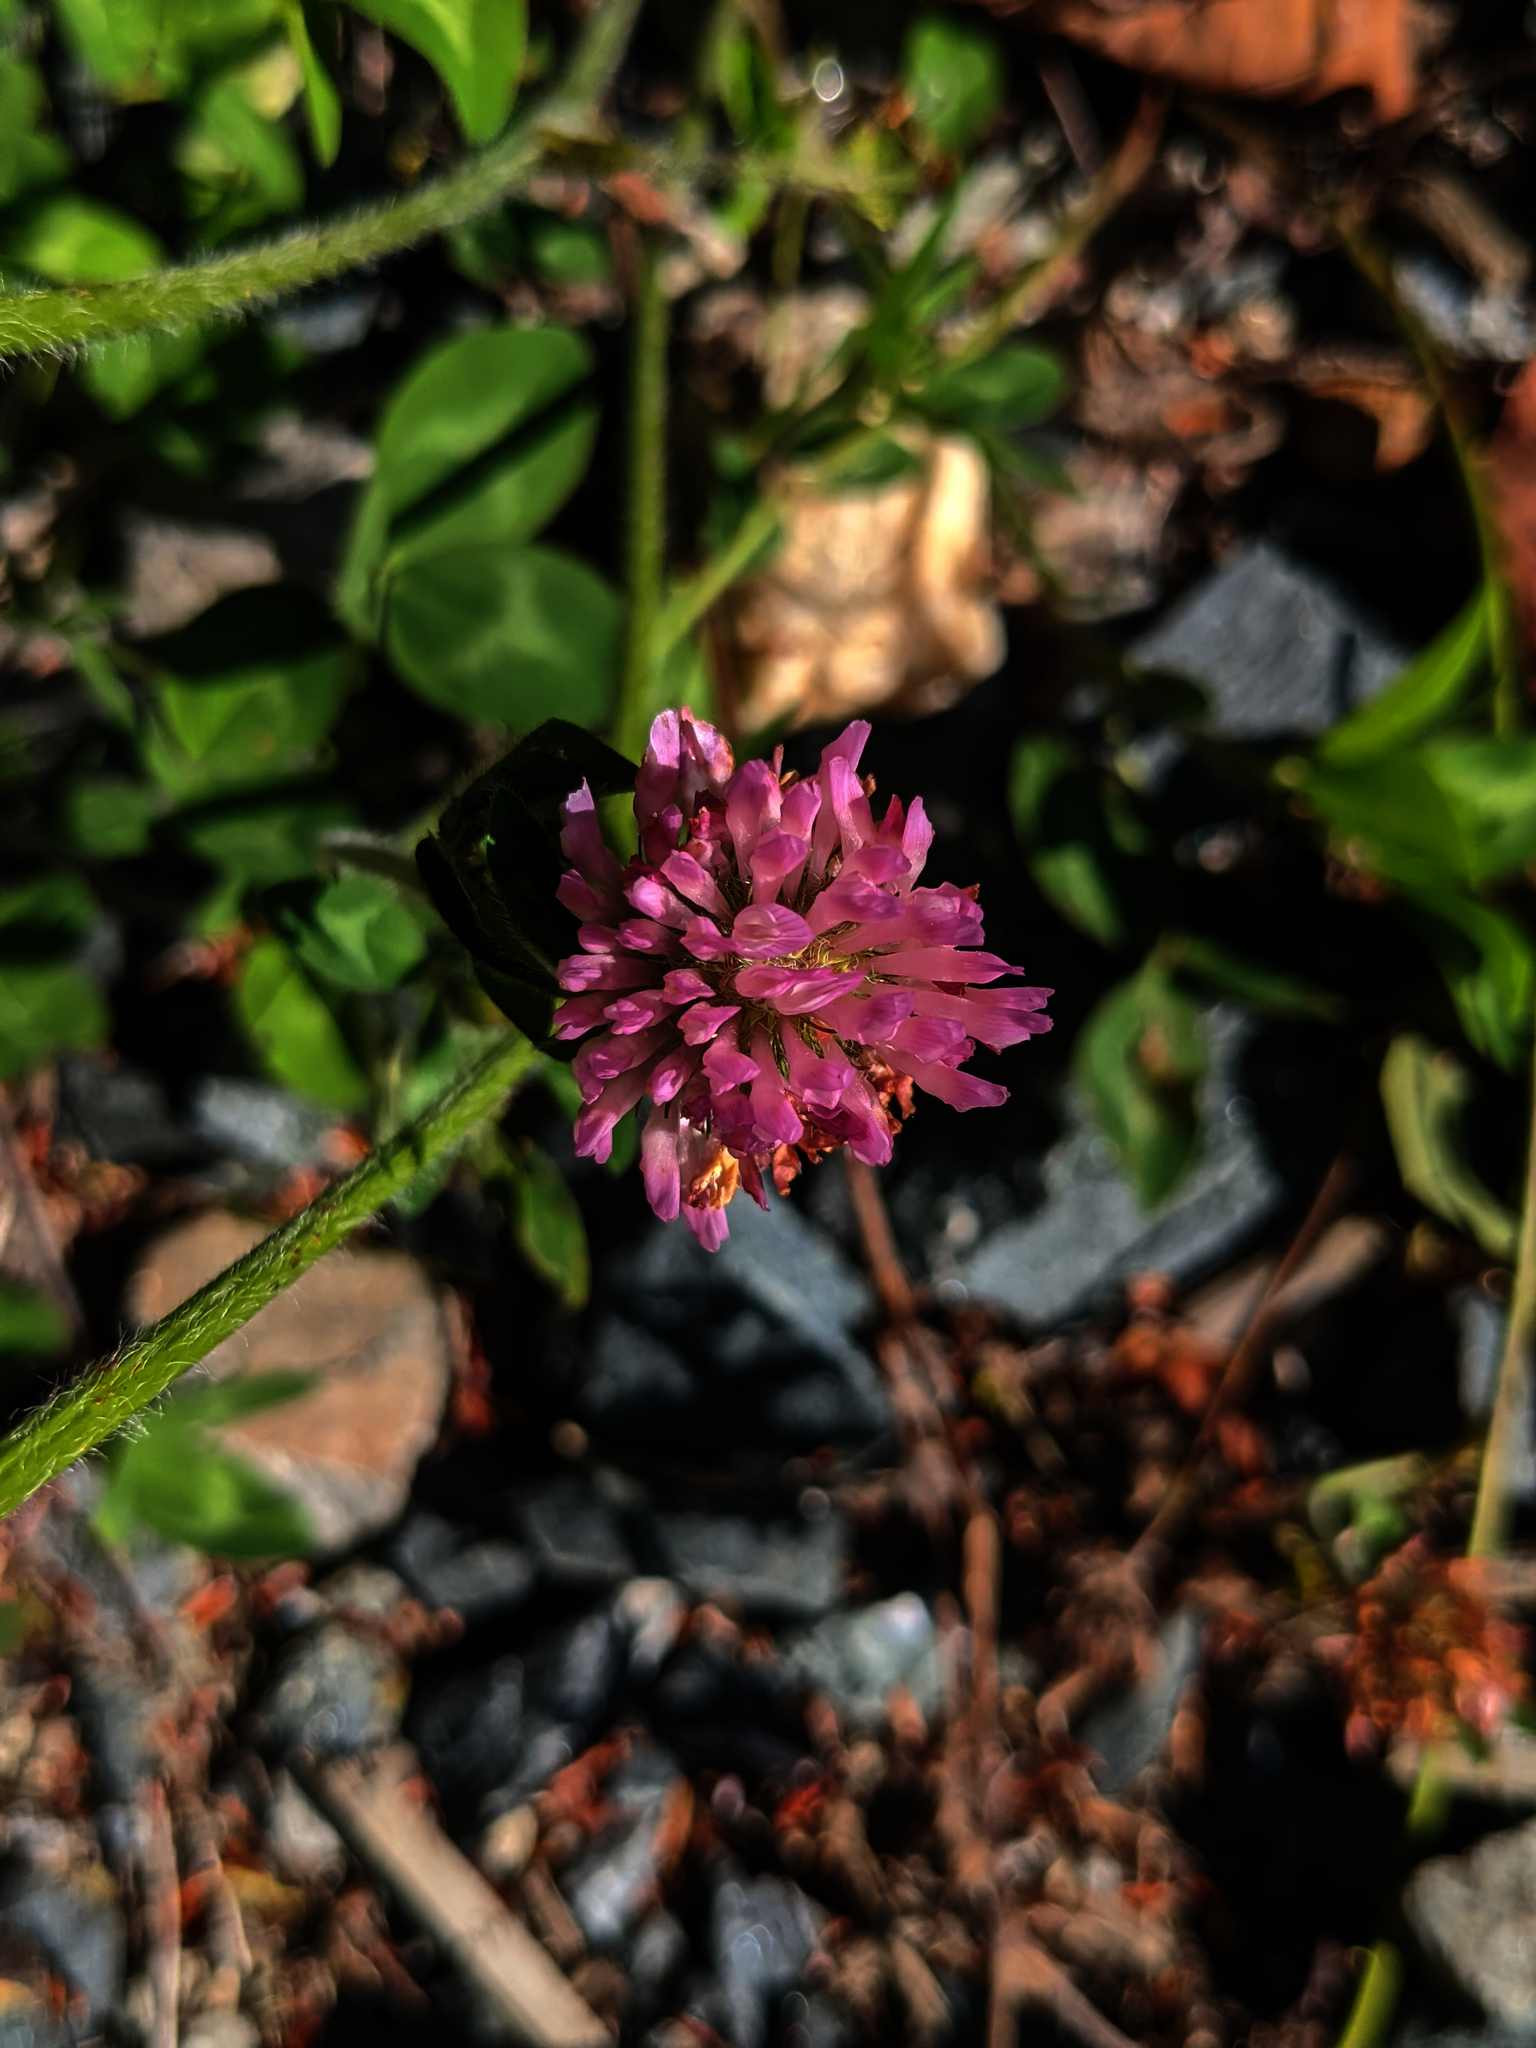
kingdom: Plantae
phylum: Tracheophyta
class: Magnoliopsida
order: Fabales
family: Fabaceae
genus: Trifolium
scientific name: Trifolium pratense
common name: Red clover
